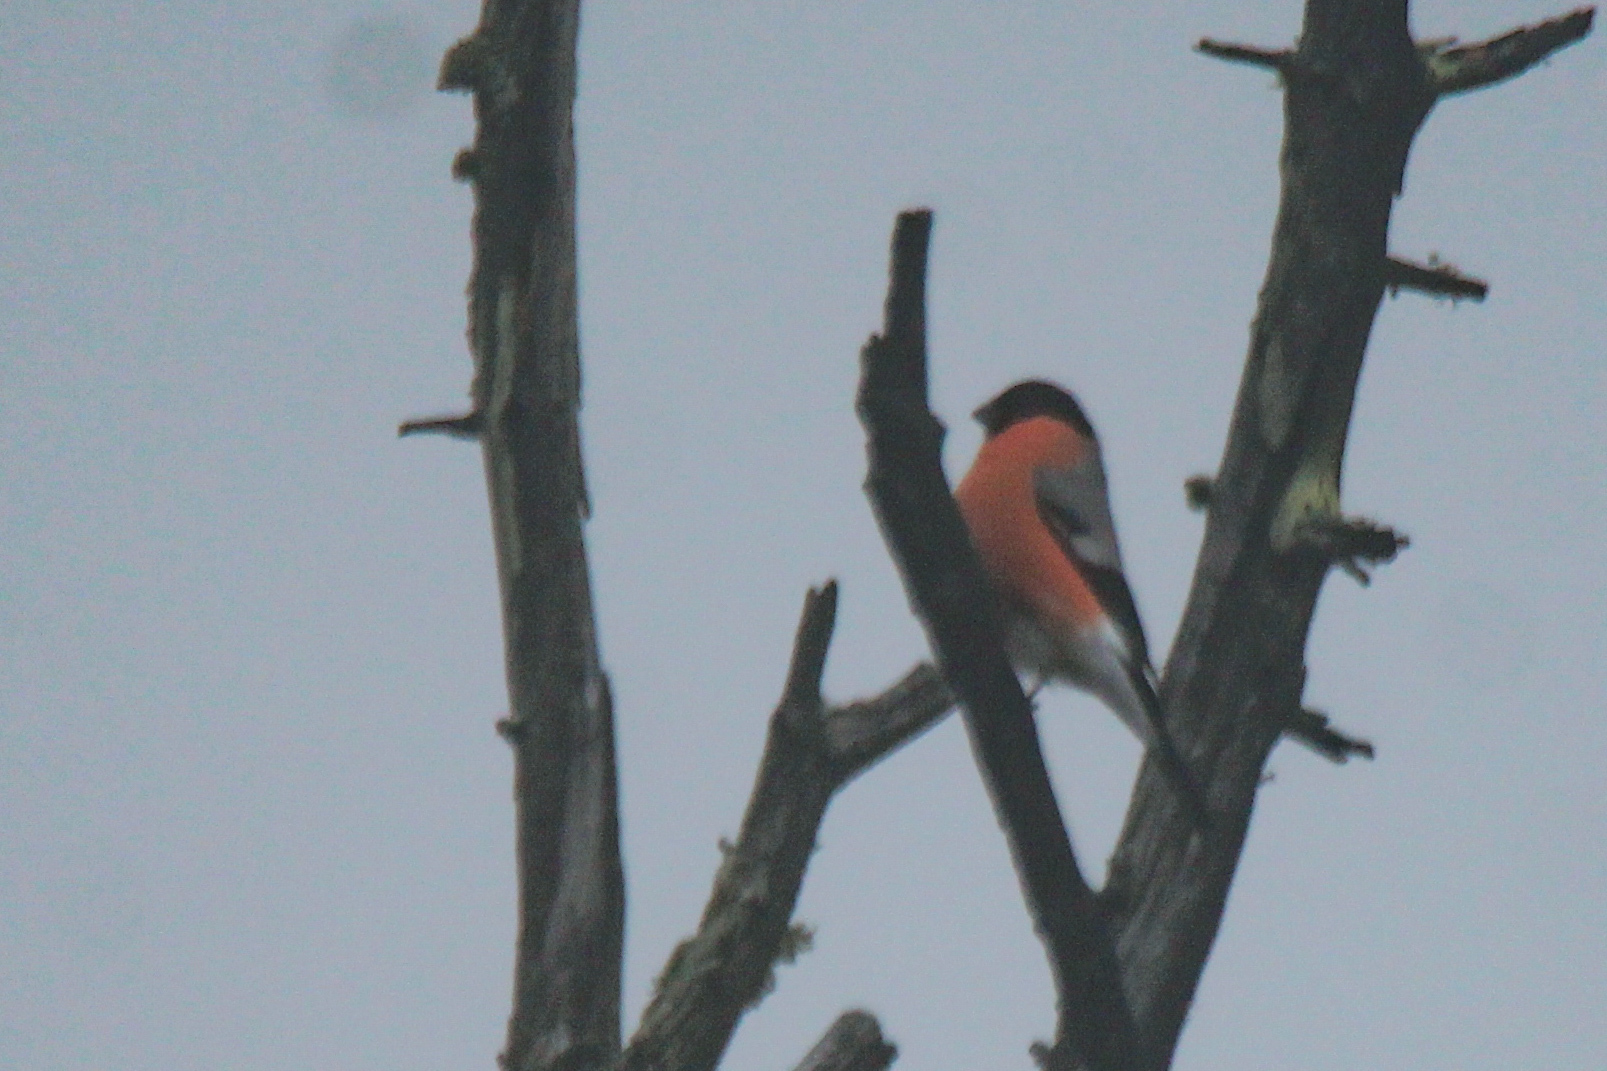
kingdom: Animalia
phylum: Chordata
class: Aves
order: Passeriformes
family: Fringillidae
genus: Pyrrhula
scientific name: Pyrrhula pyrrhula
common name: Eurasian bullfinch
